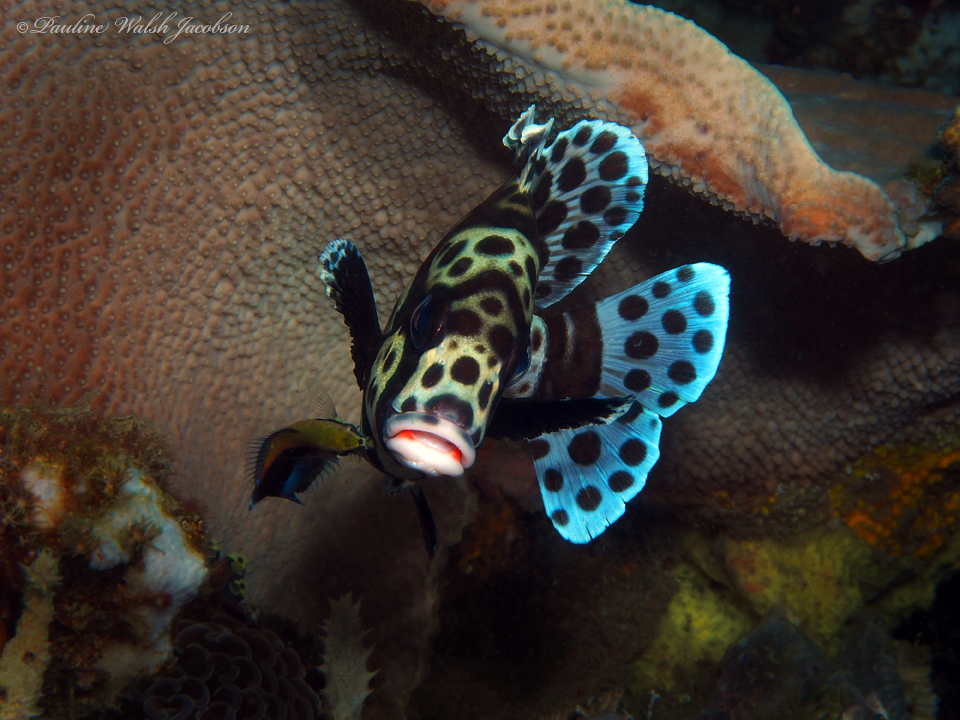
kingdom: Animalia
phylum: Chordata
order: Perciformes
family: Haemulidae
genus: Plectorhinchus
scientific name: Plectorhinchus chaetodonoides
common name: Harlequin sweetlips
